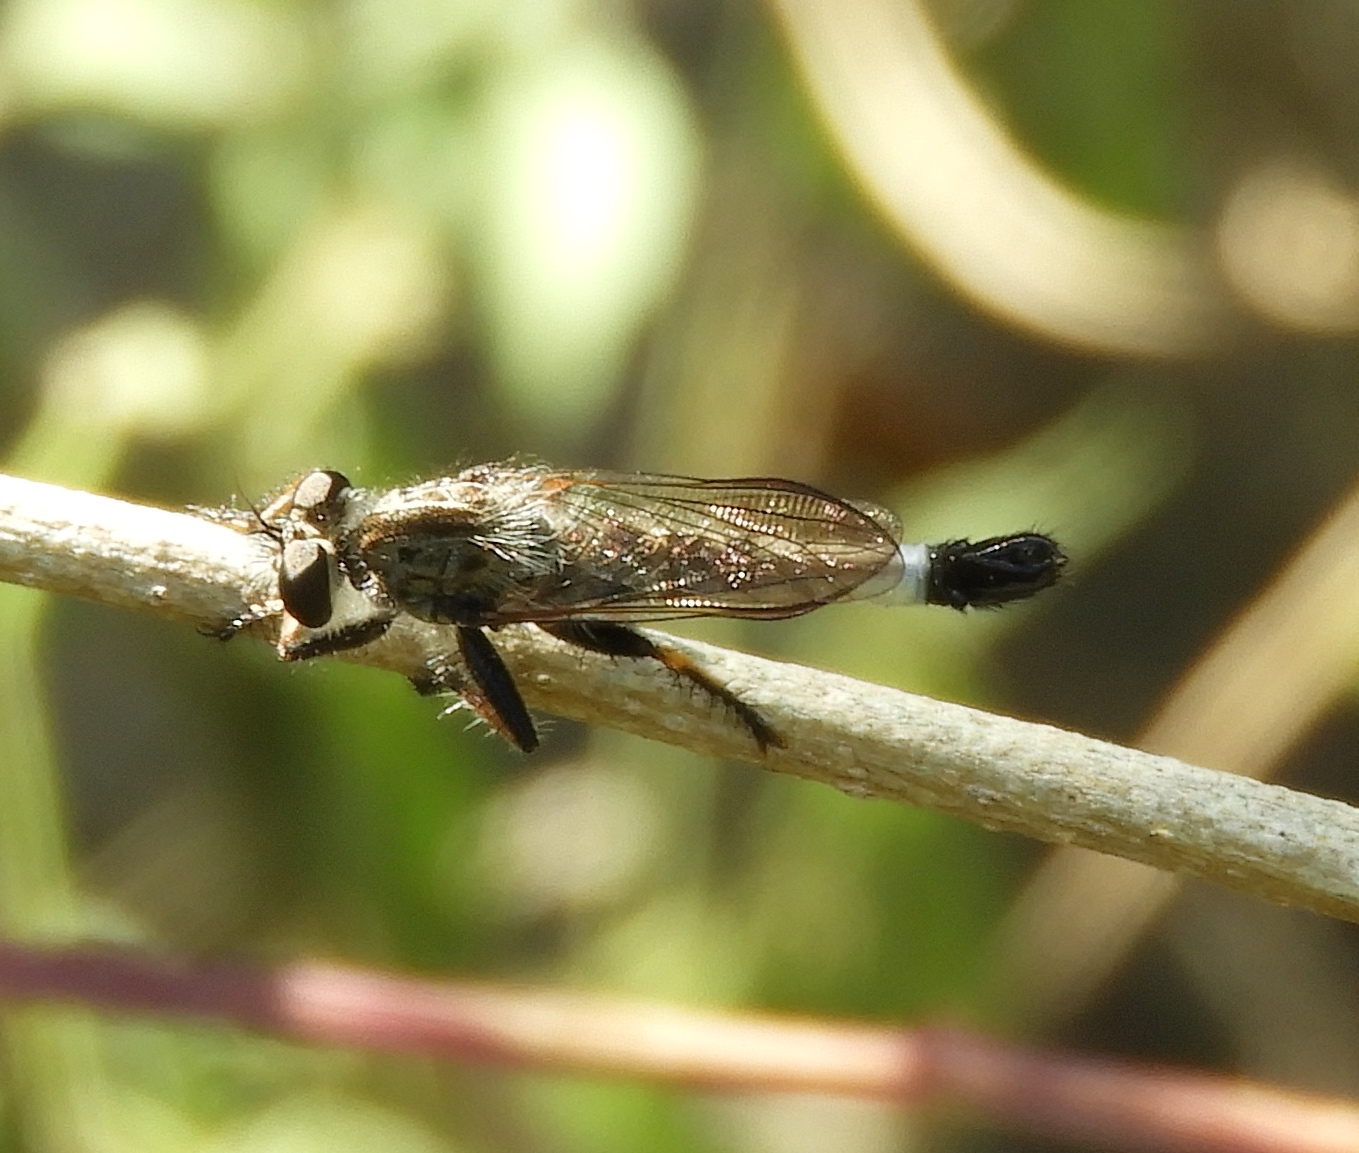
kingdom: Animalia
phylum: Arthropoda
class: Insecta
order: Diptera
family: Asilidae
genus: Efferia
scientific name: Efferia
